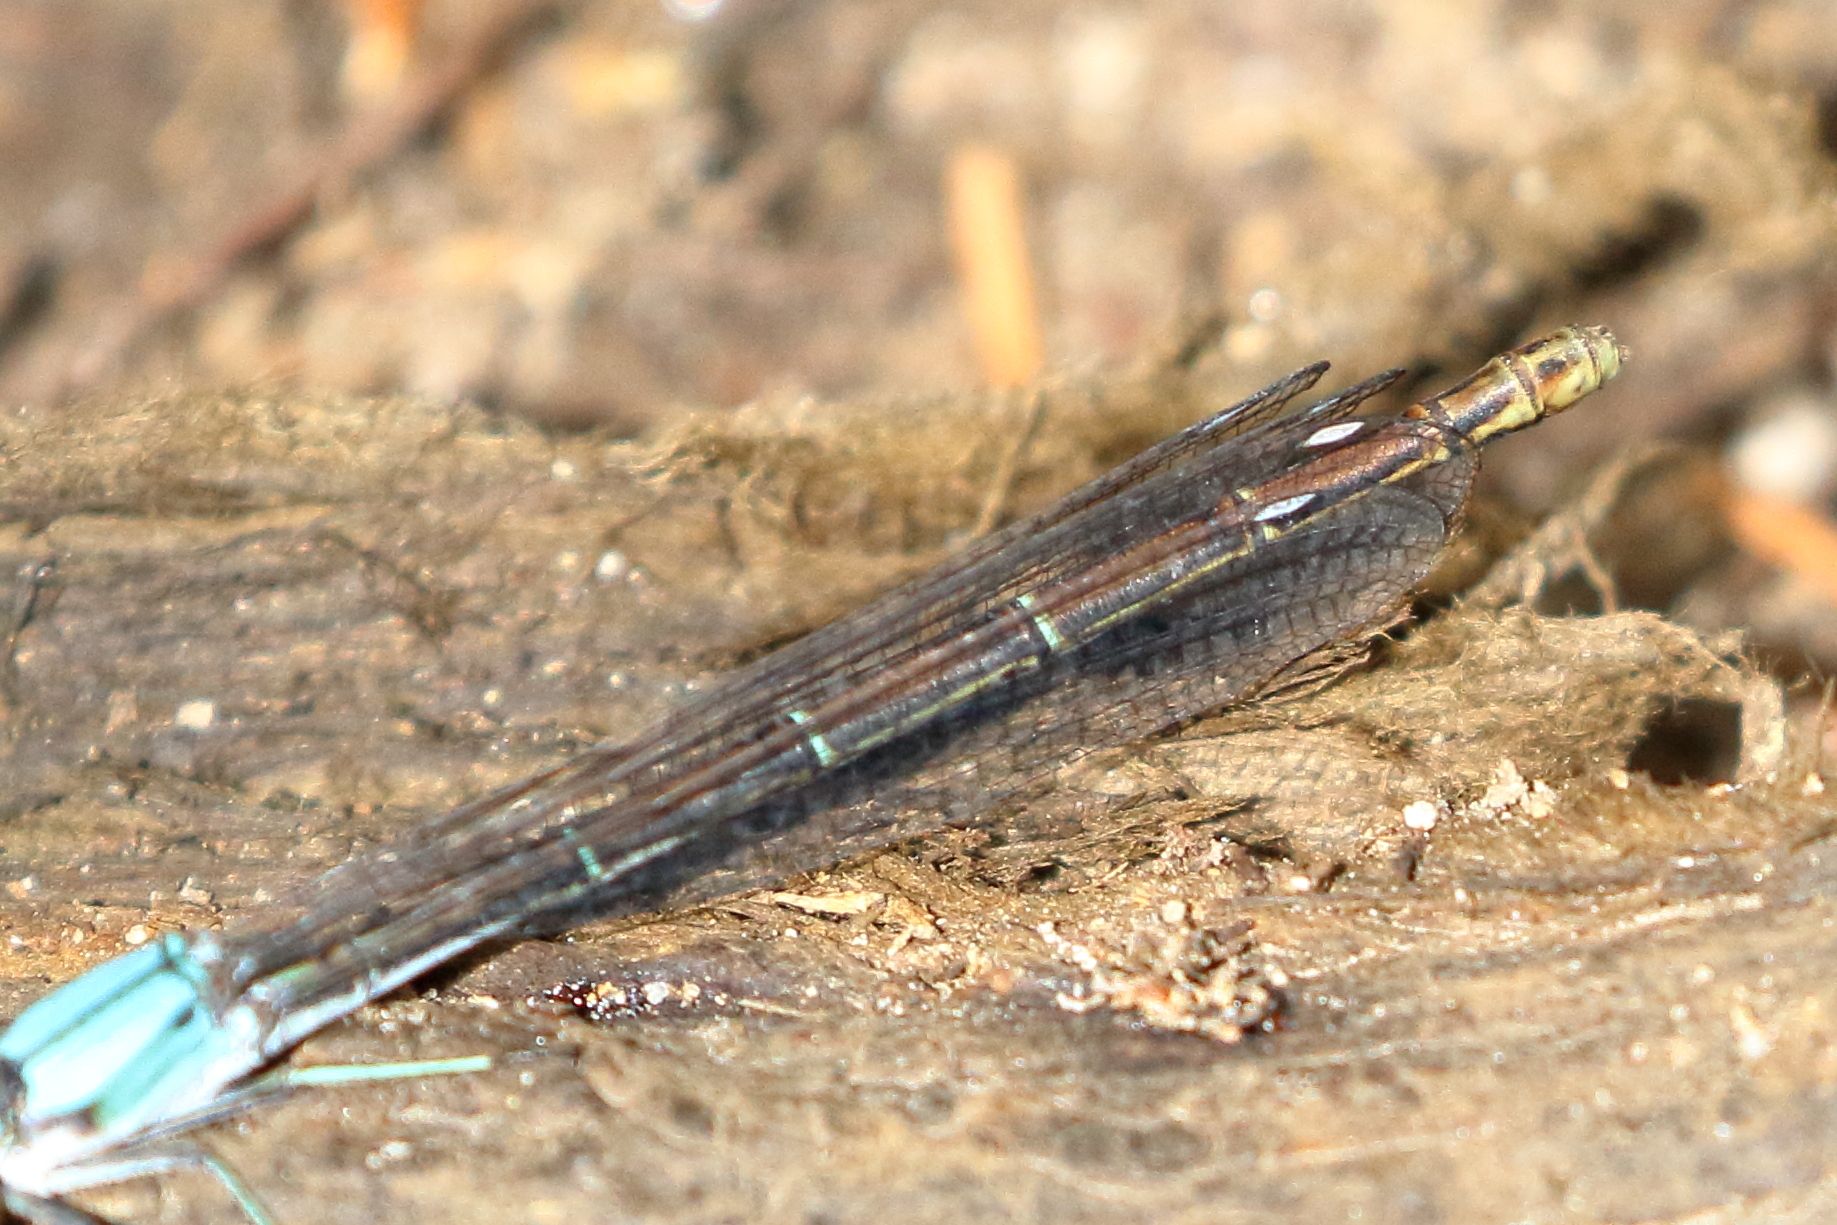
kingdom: Animalia
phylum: Arthropoda
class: Insecta
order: Odonata
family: Coenagrionidae
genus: Argia
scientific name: Argia moesta
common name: Powdered dancer
